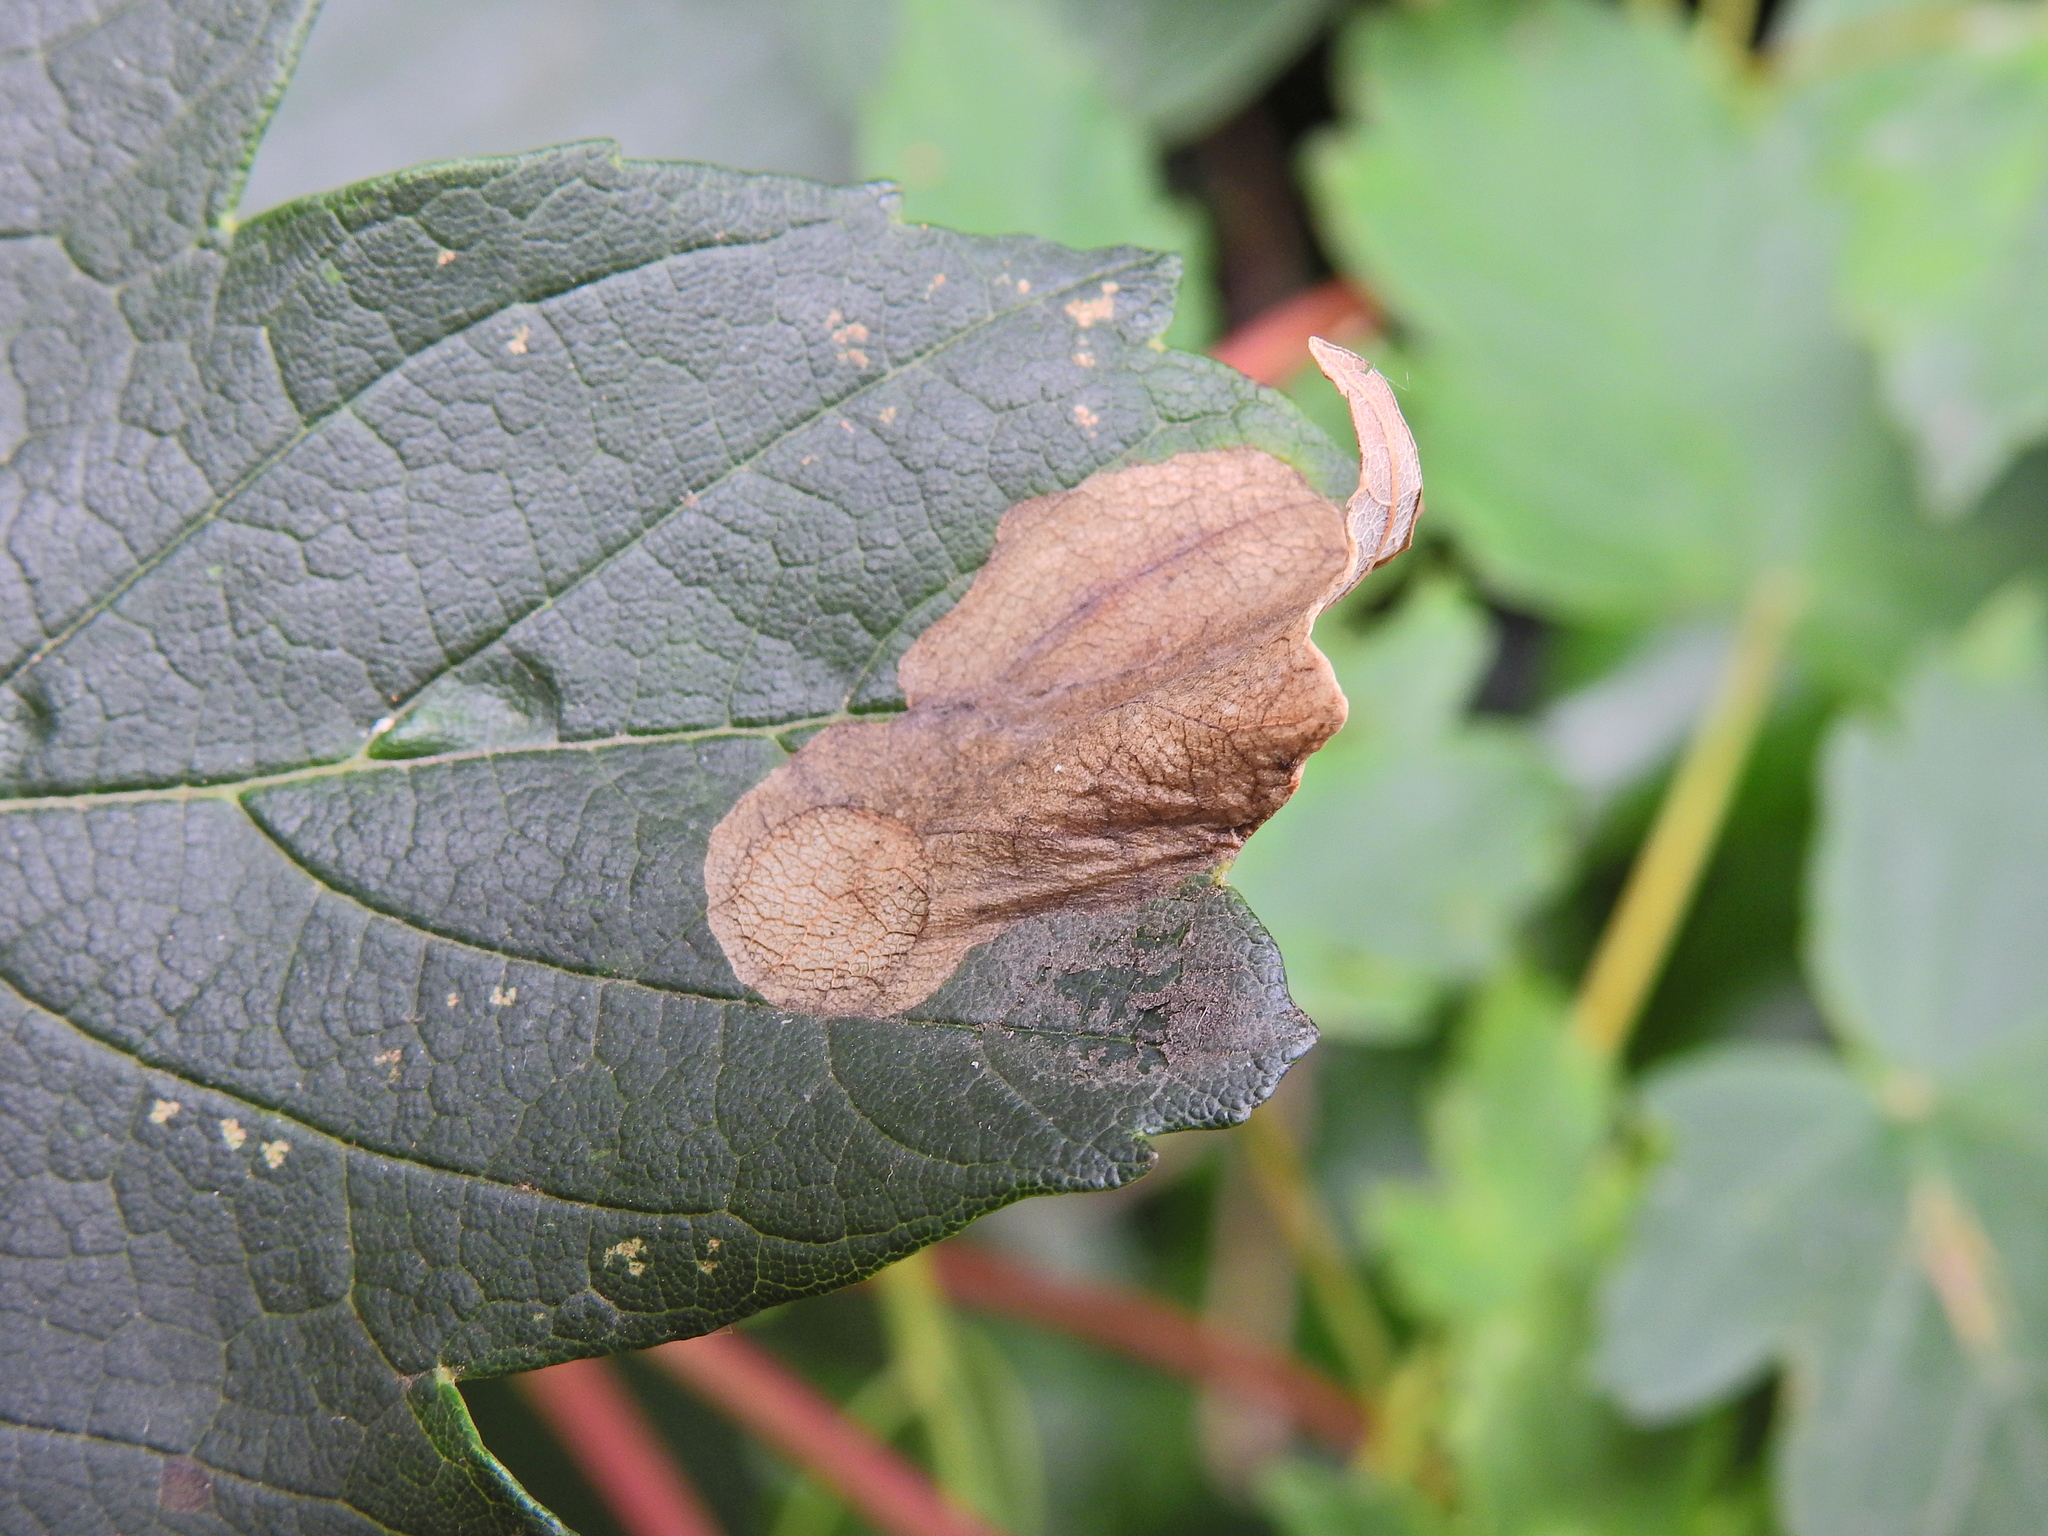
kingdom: Animalia
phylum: Arthropoda
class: Insecta
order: Hymenoptera
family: Tenthredinidae
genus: Heterarthrus
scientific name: Heterarthrus fiora
